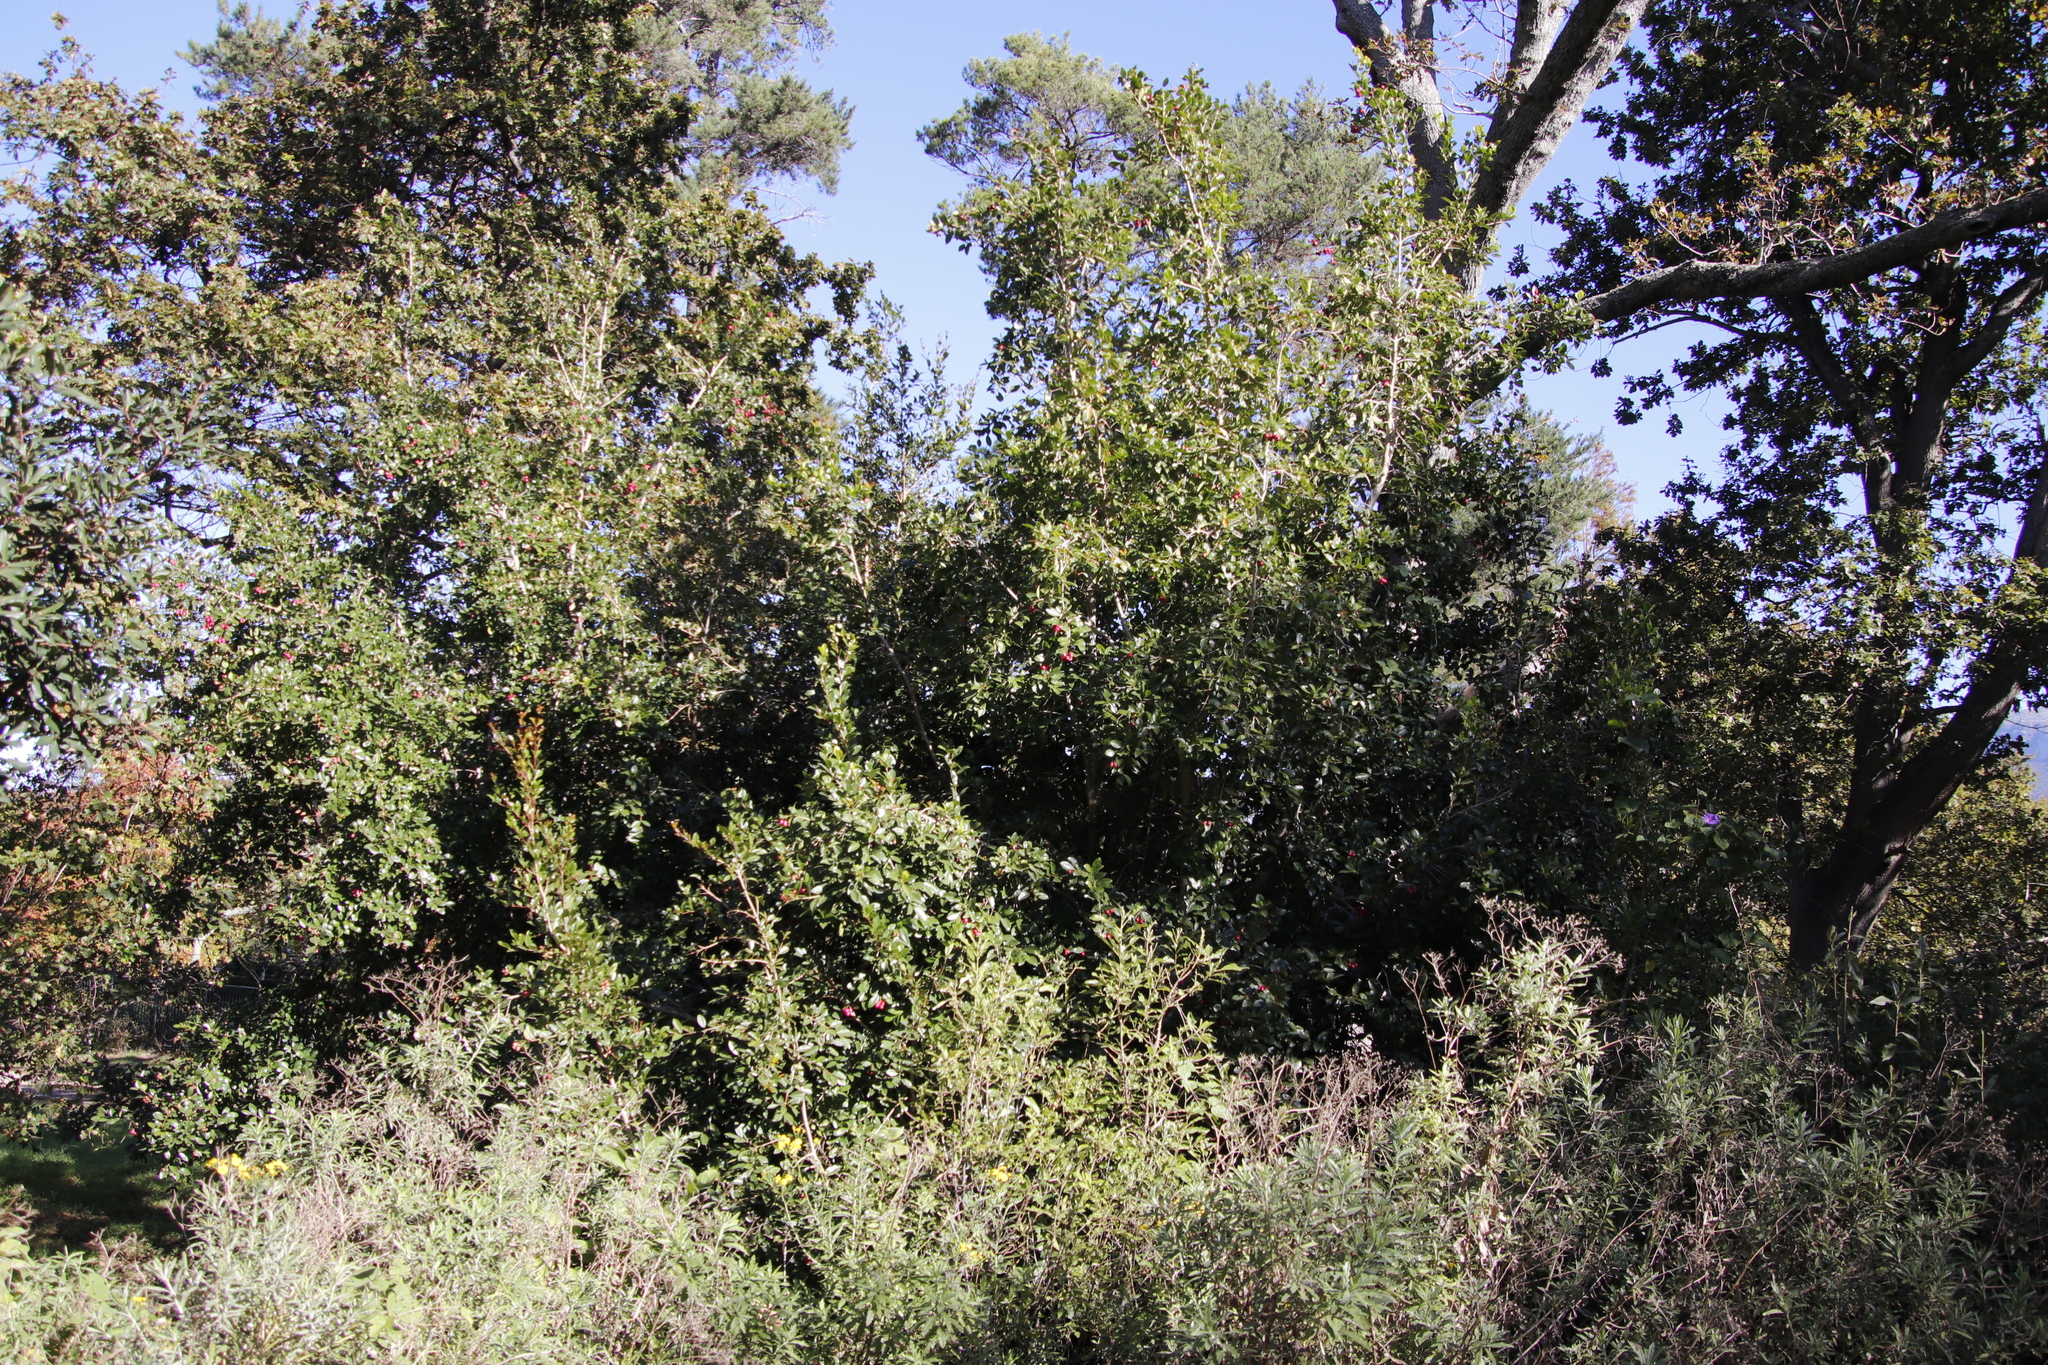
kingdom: Plantae
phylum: Tracheophyta
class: Magnoliopsida
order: Myrtales
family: Myrtaceae
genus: Syzygium
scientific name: Syzygium australe
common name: Australian brush-cherry
